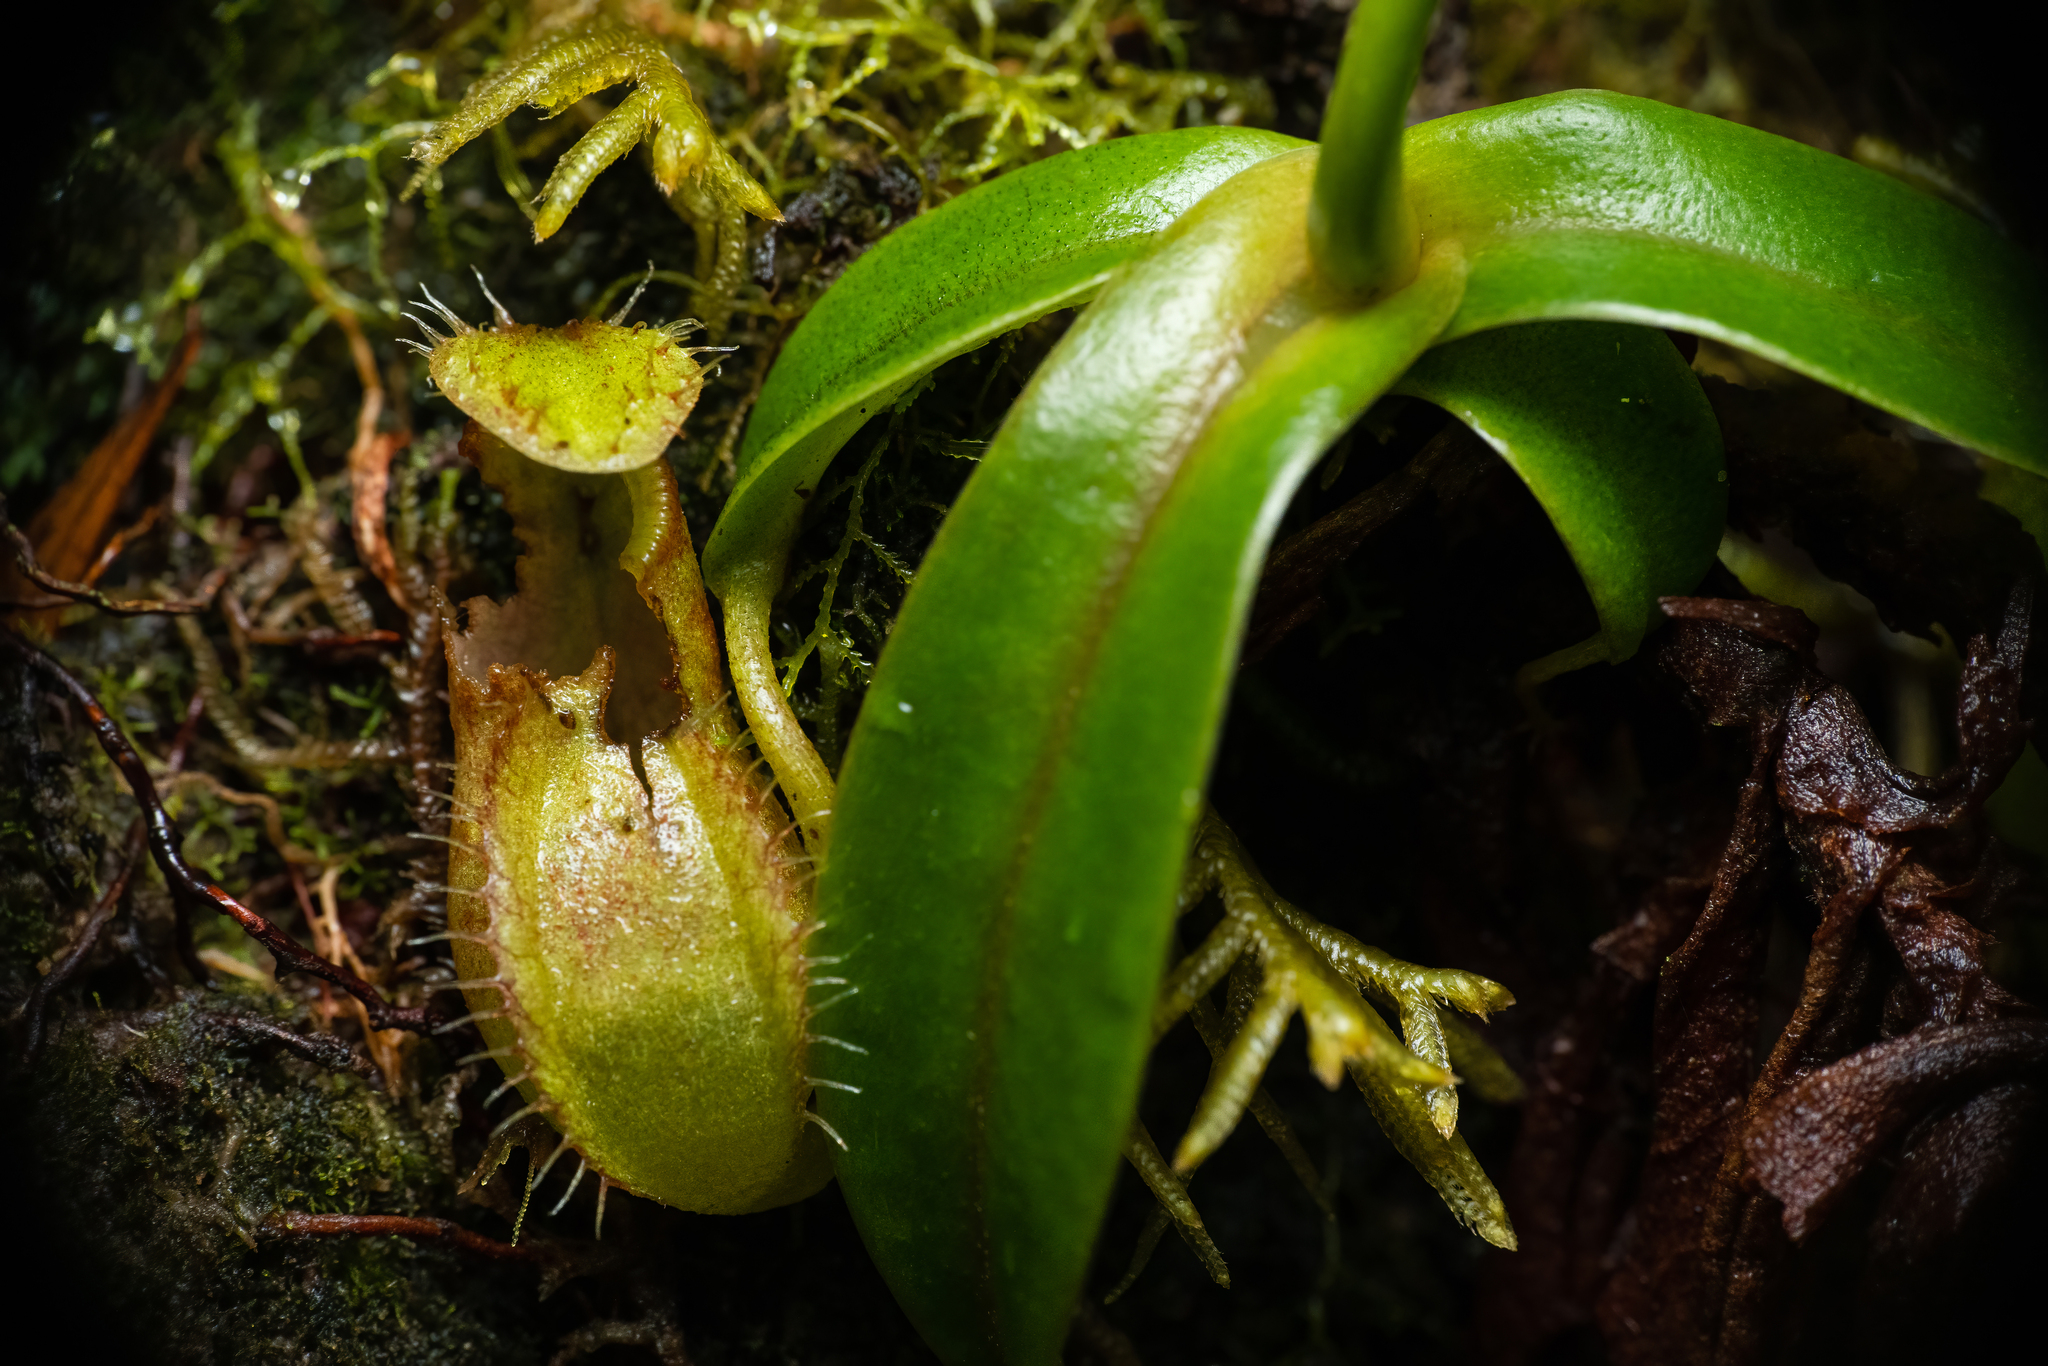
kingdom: Plantae
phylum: Tracheophyta
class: Magnoliopsida
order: Caryophyllales
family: Nepenthaceae
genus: Nepenthes
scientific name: Nepenthes tentaculata
